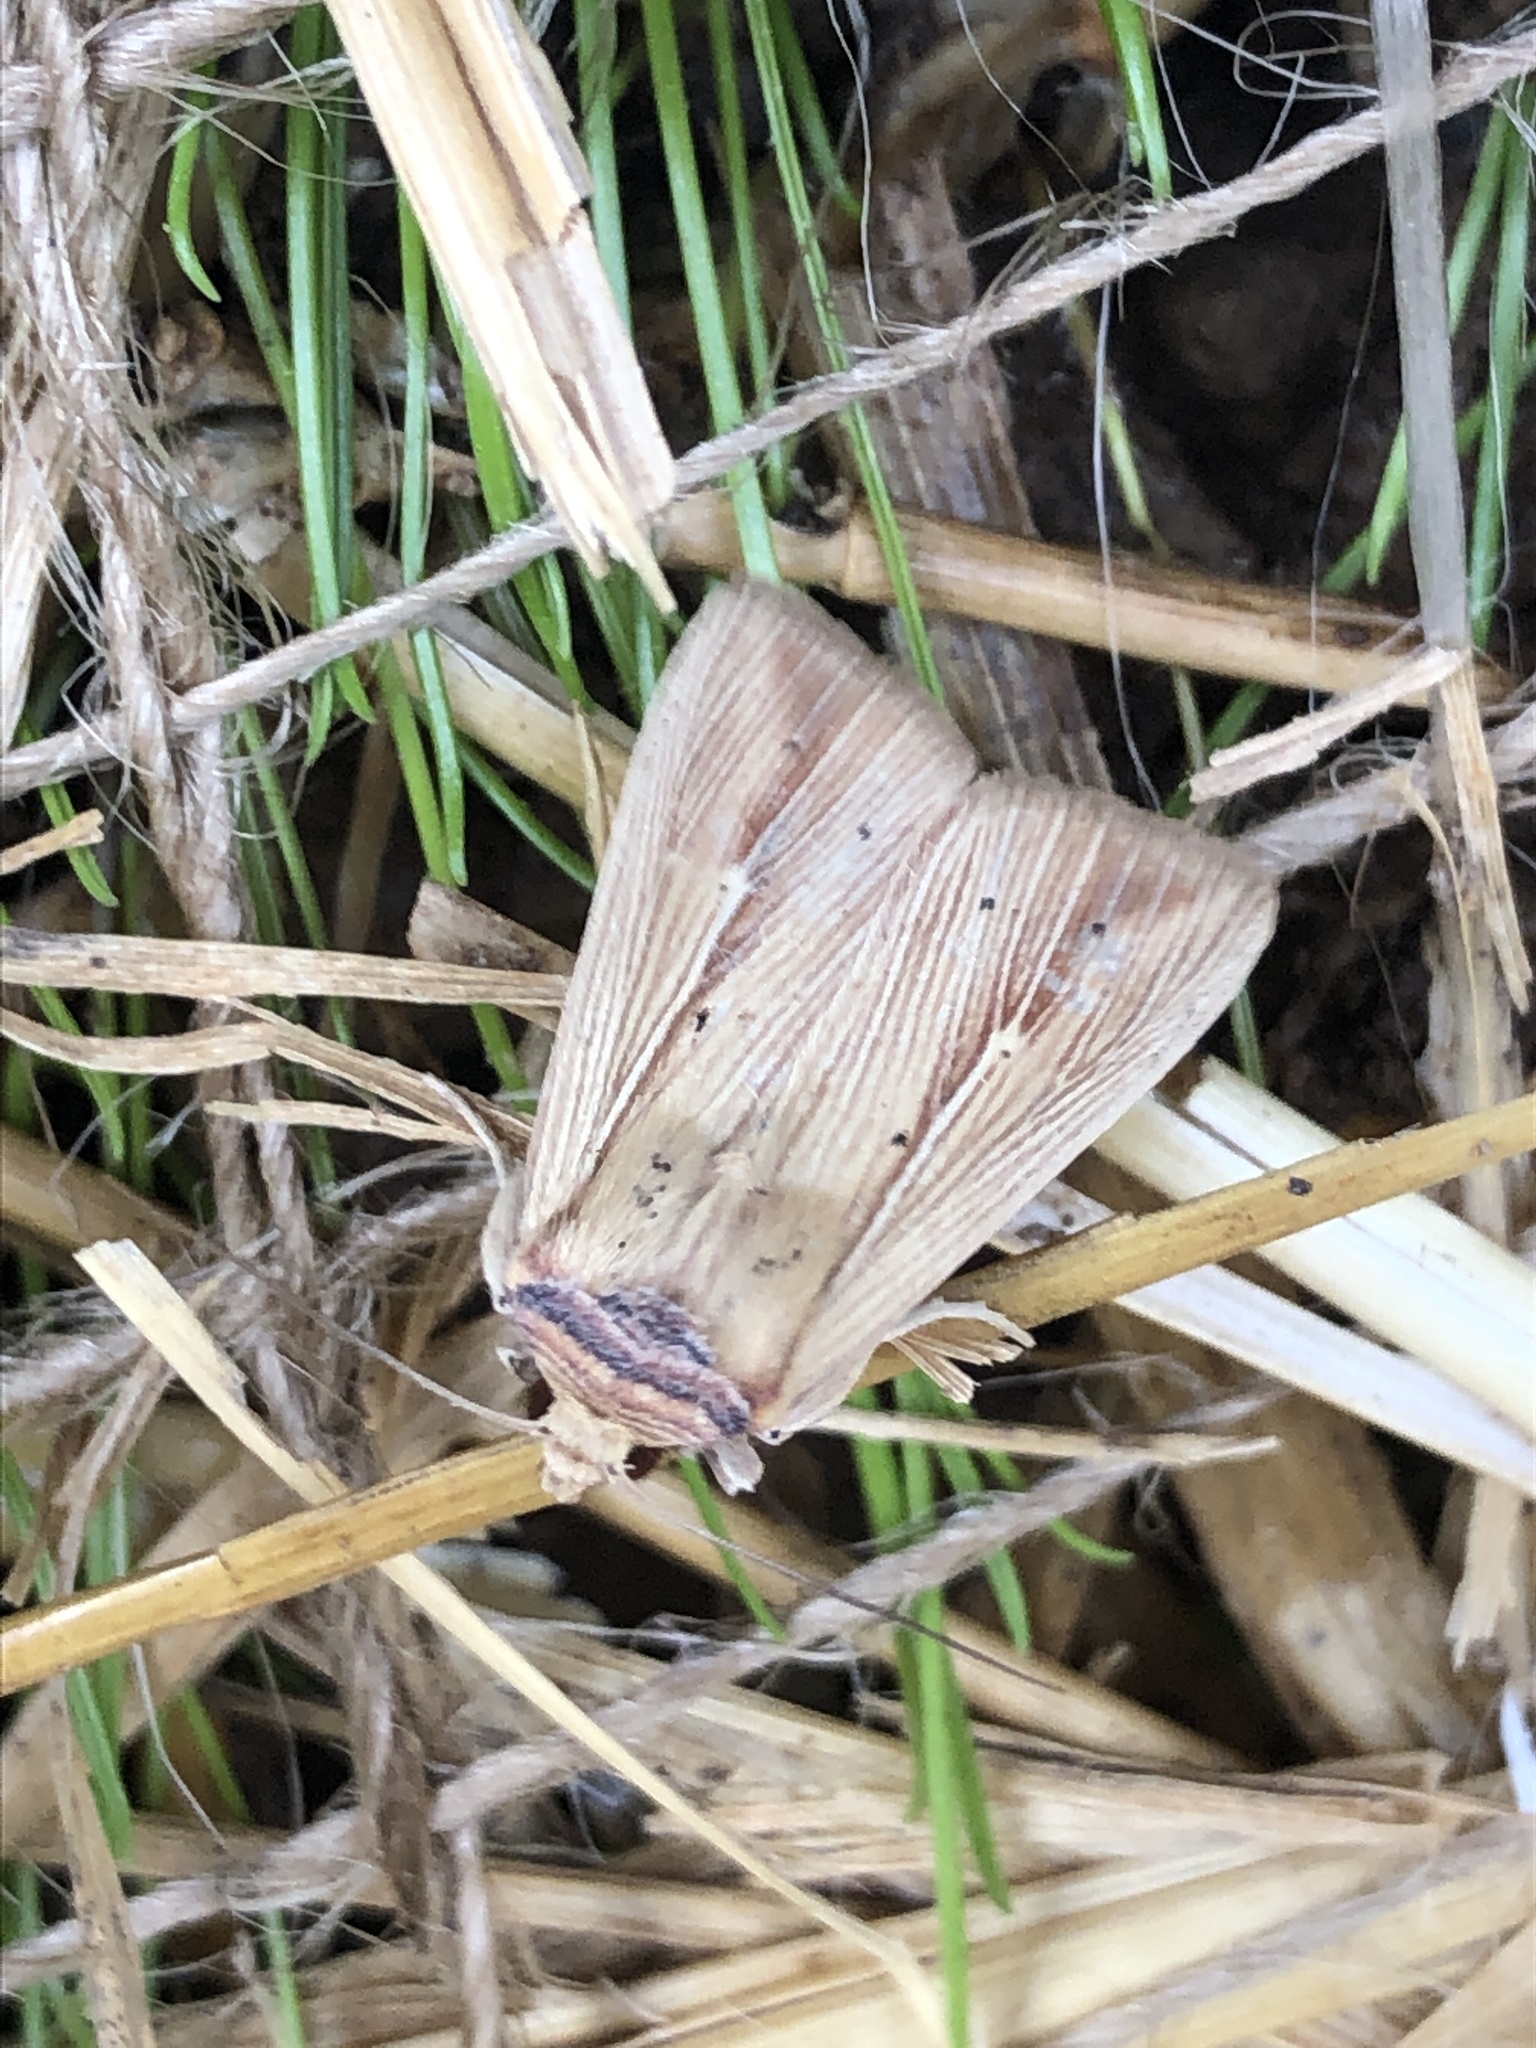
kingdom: Animalia
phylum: Arthropoda
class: Insecta
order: Lepidoptera
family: Noctuidae
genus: Leucania
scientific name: Leucania adjuta
